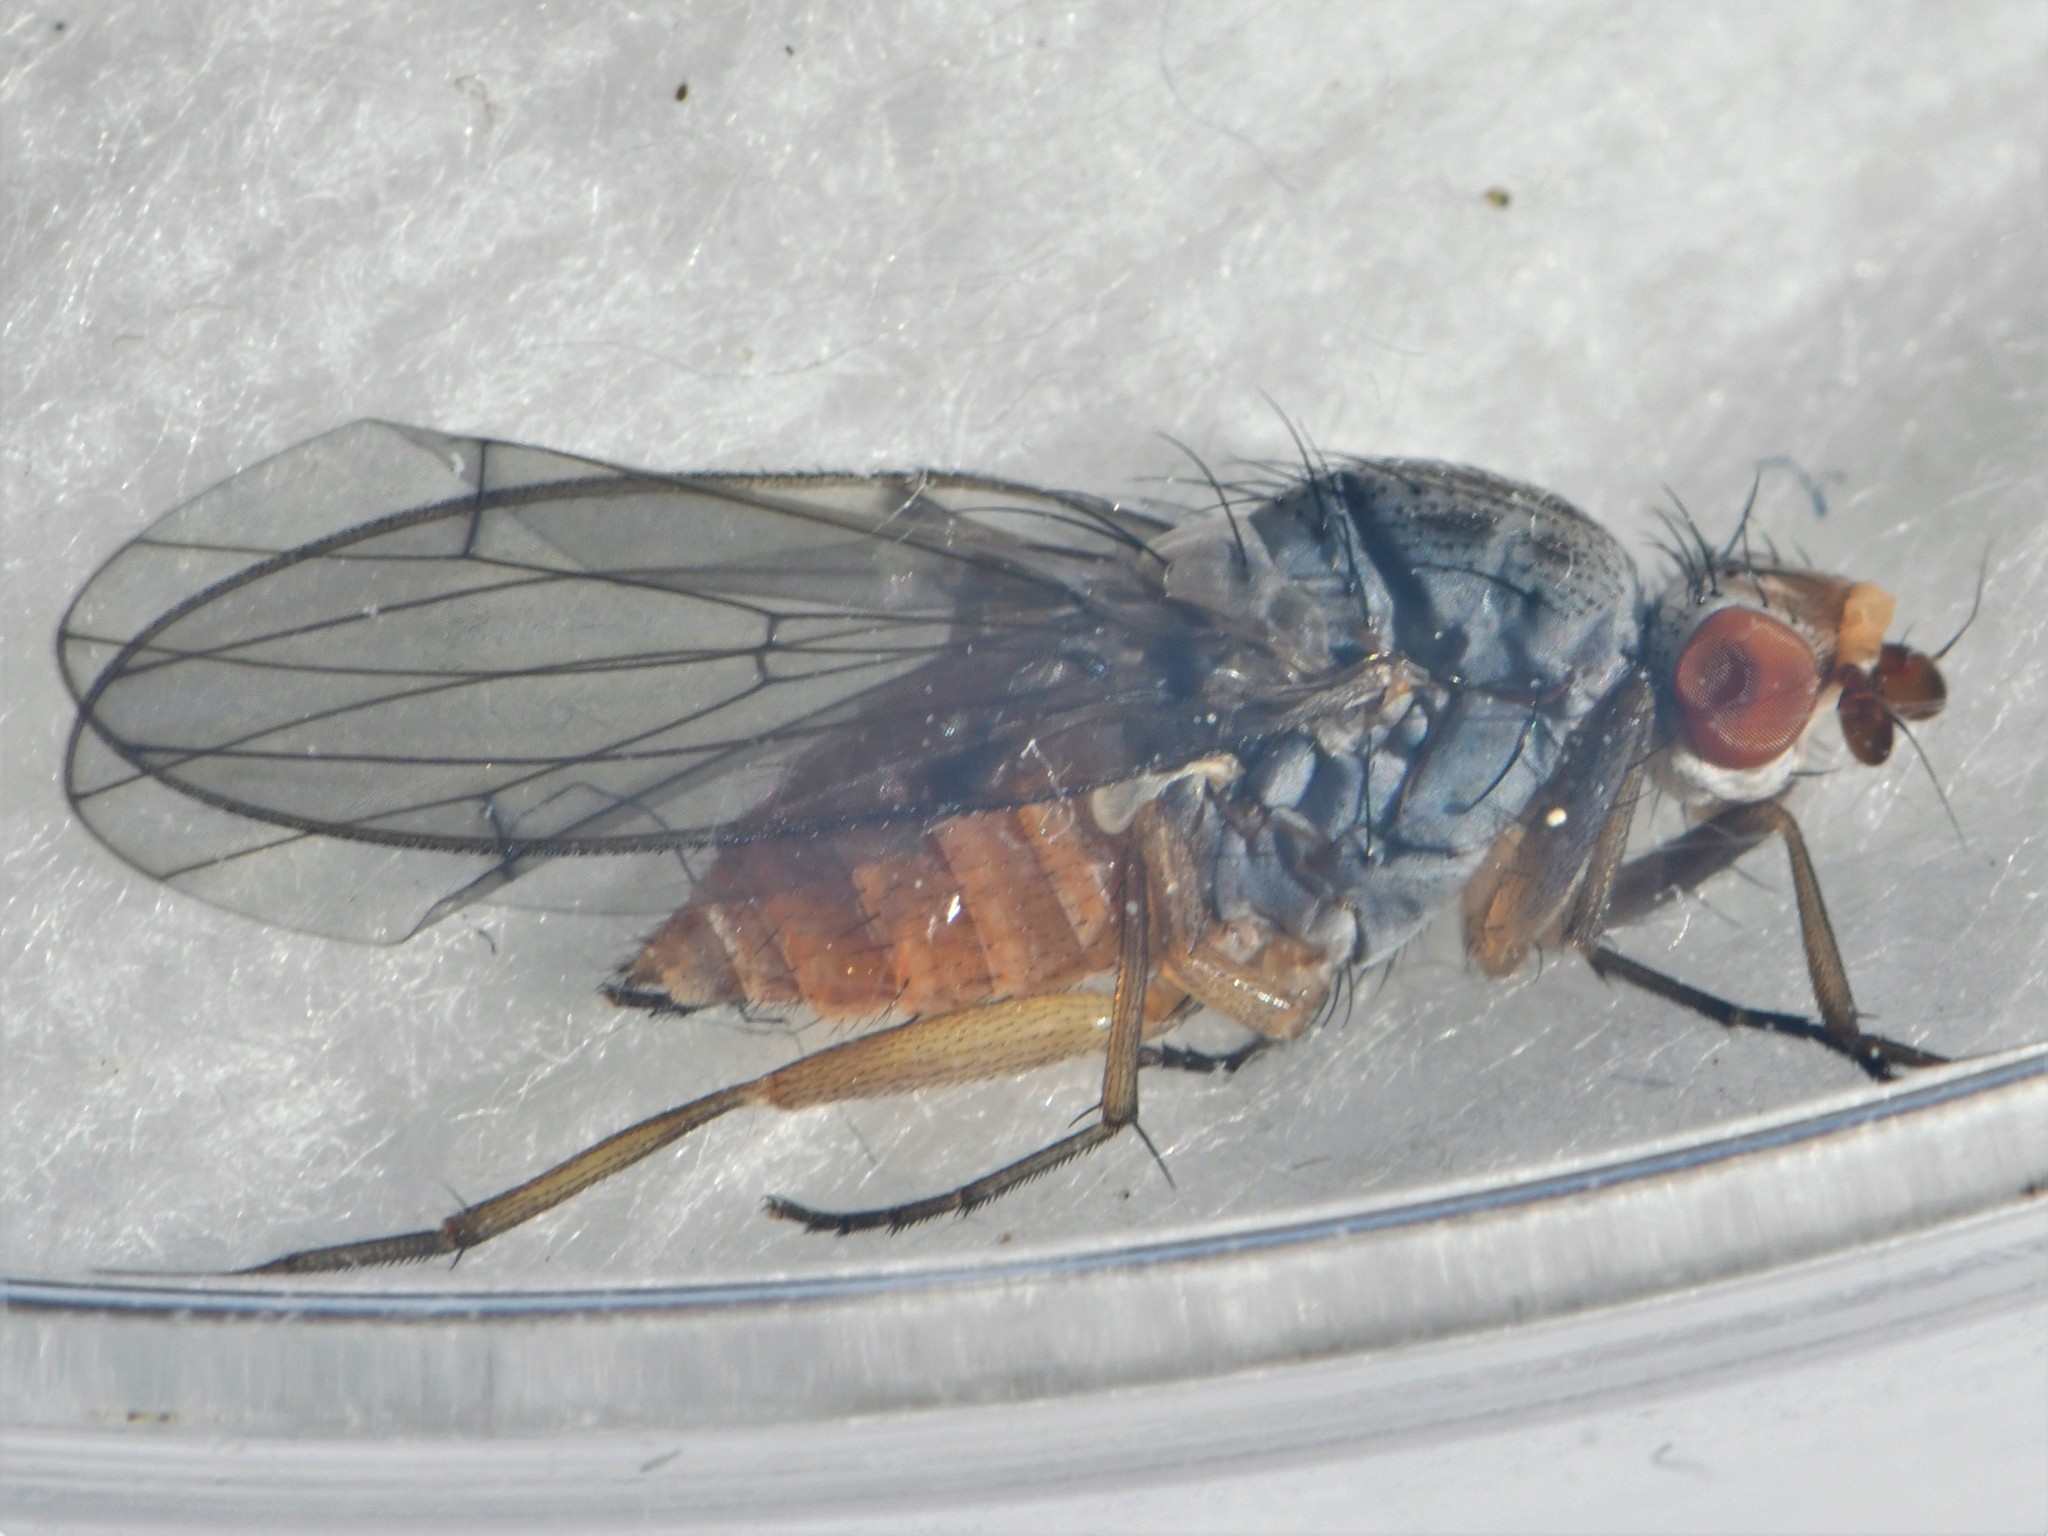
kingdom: Animalia
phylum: Arthropoda
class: Insecta
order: Diptera
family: Heleomyzidae
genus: Tephrochlamys
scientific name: Tephrochlamys flavipes
